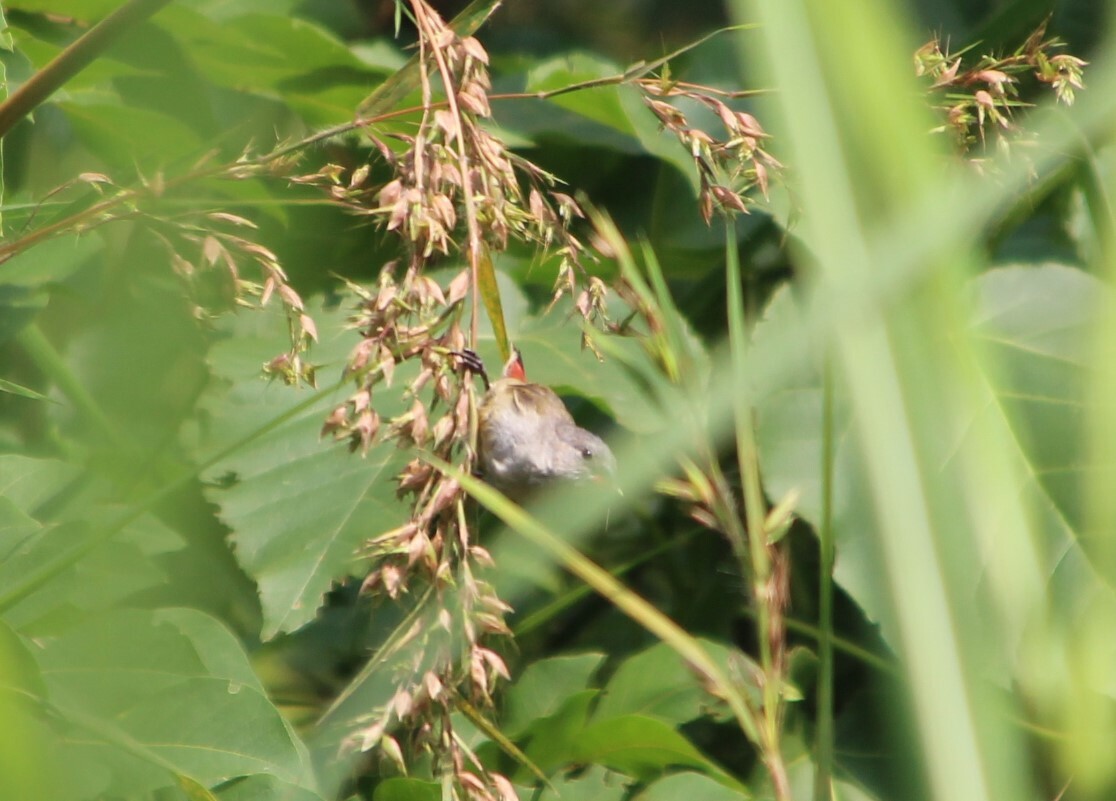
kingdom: Animalia
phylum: Chordata
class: Aves
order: Passeriformes
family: Estrildidae
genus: Coccopygia
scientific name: Coccopygia quartinia
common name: Yellow-bellied waxbill
